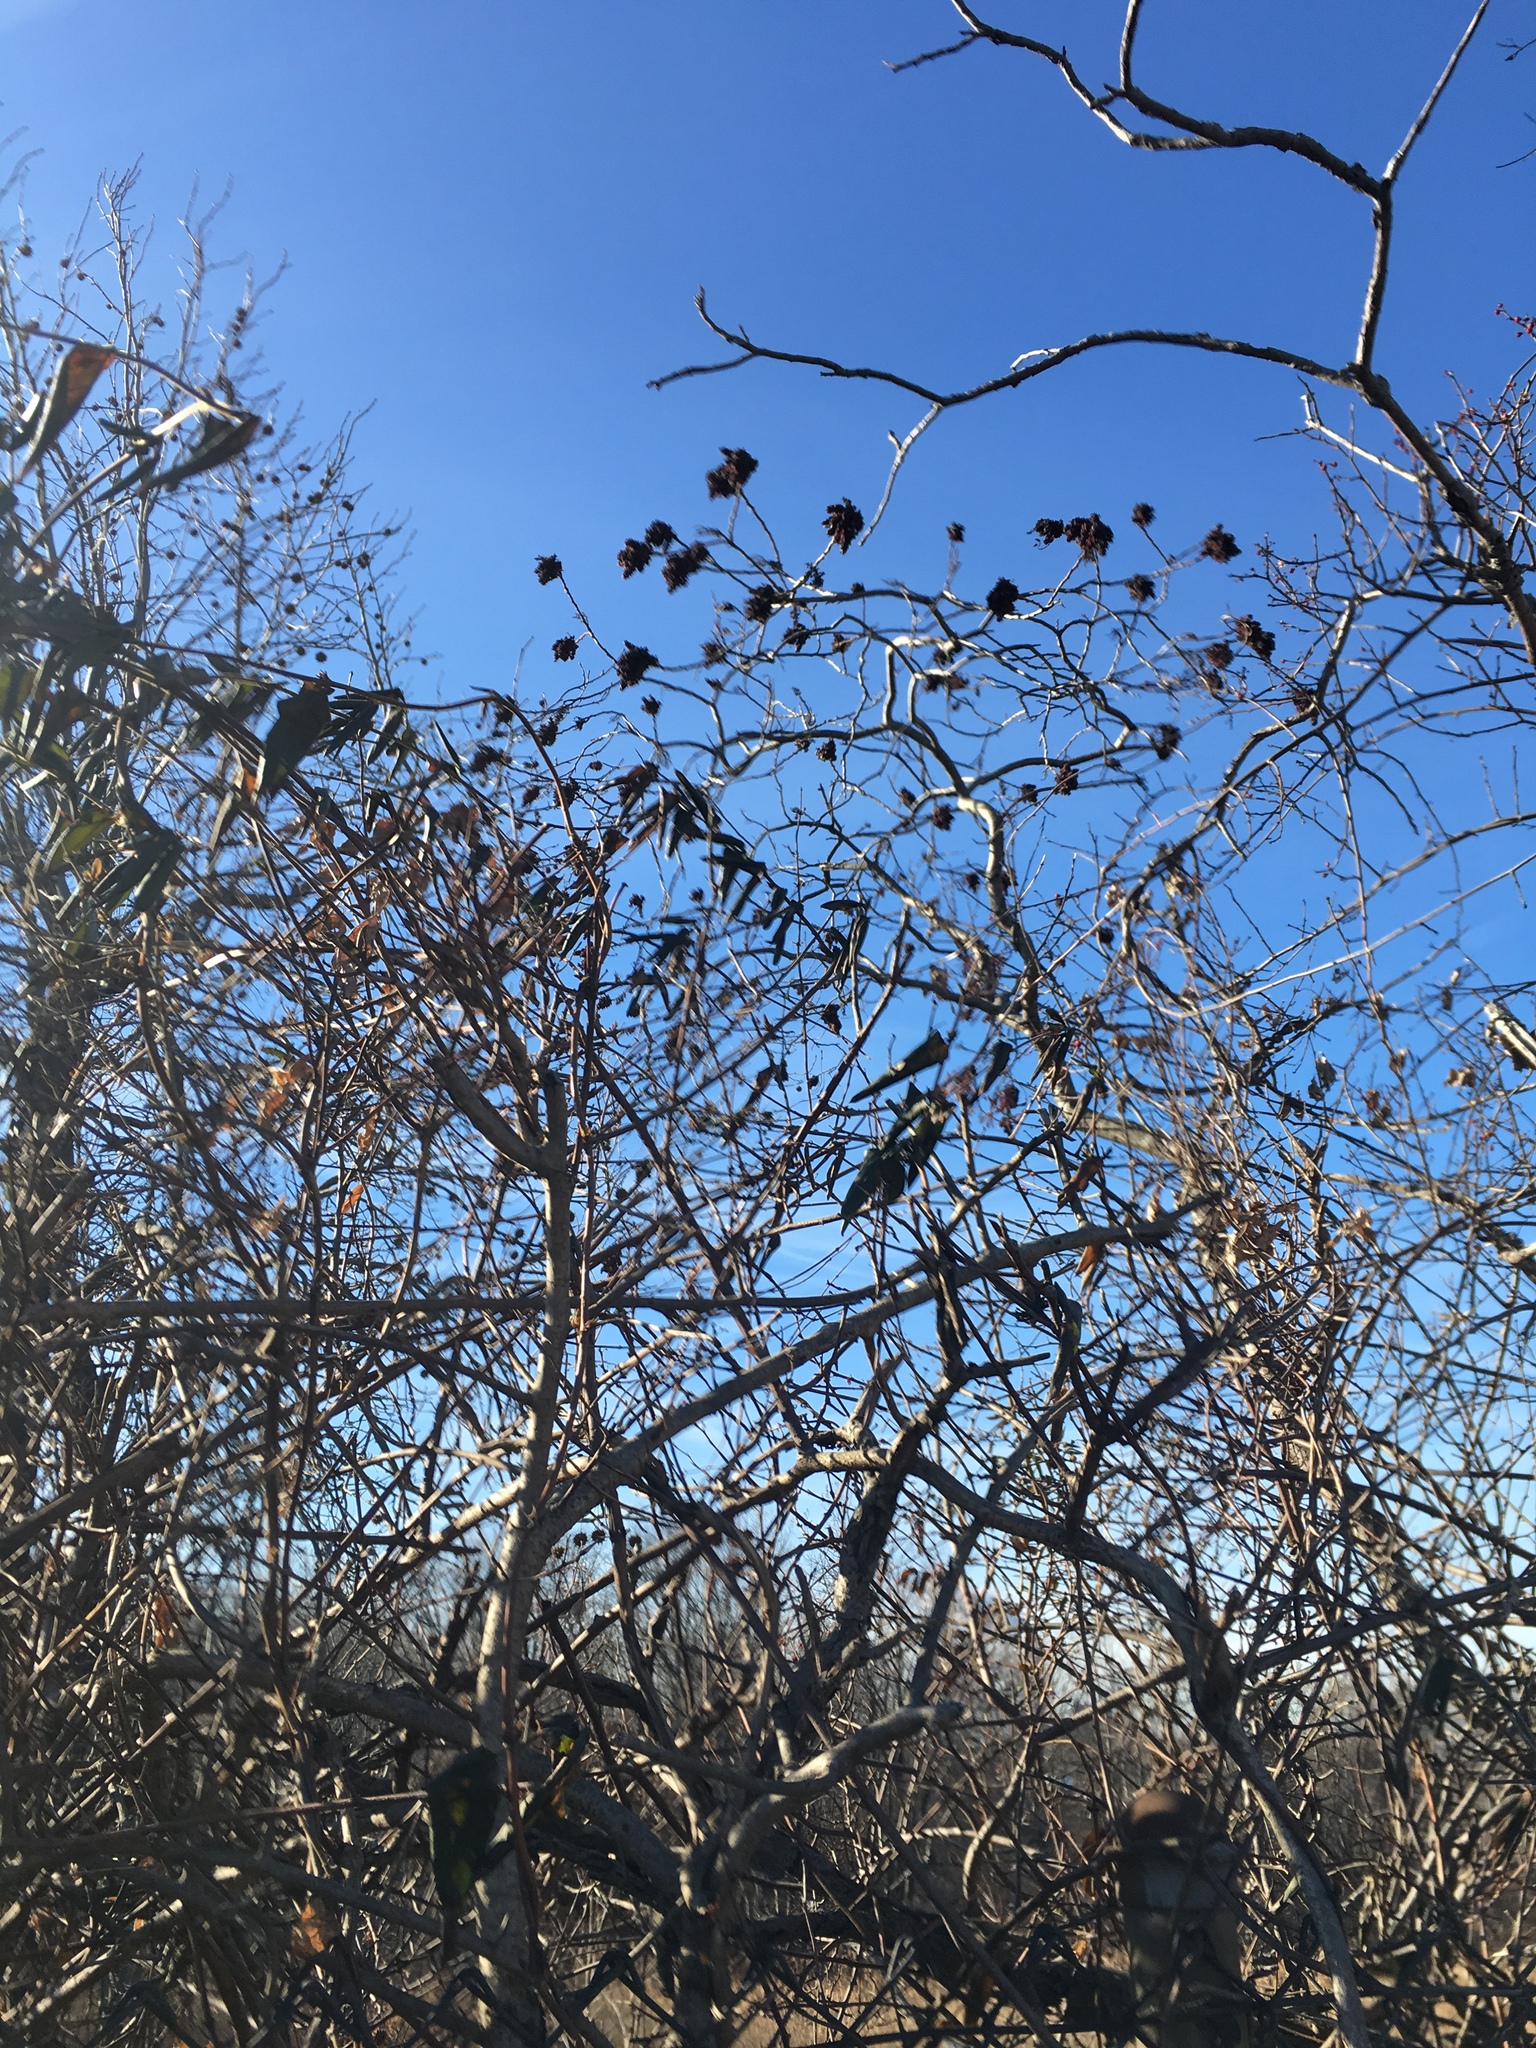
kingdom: Plantae
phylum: Tracheophyta
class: Magnoliopsida
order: Sapindales
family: Anacardiaceae
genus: Rhus
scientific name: Rhus copallina
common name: Shining sumac
